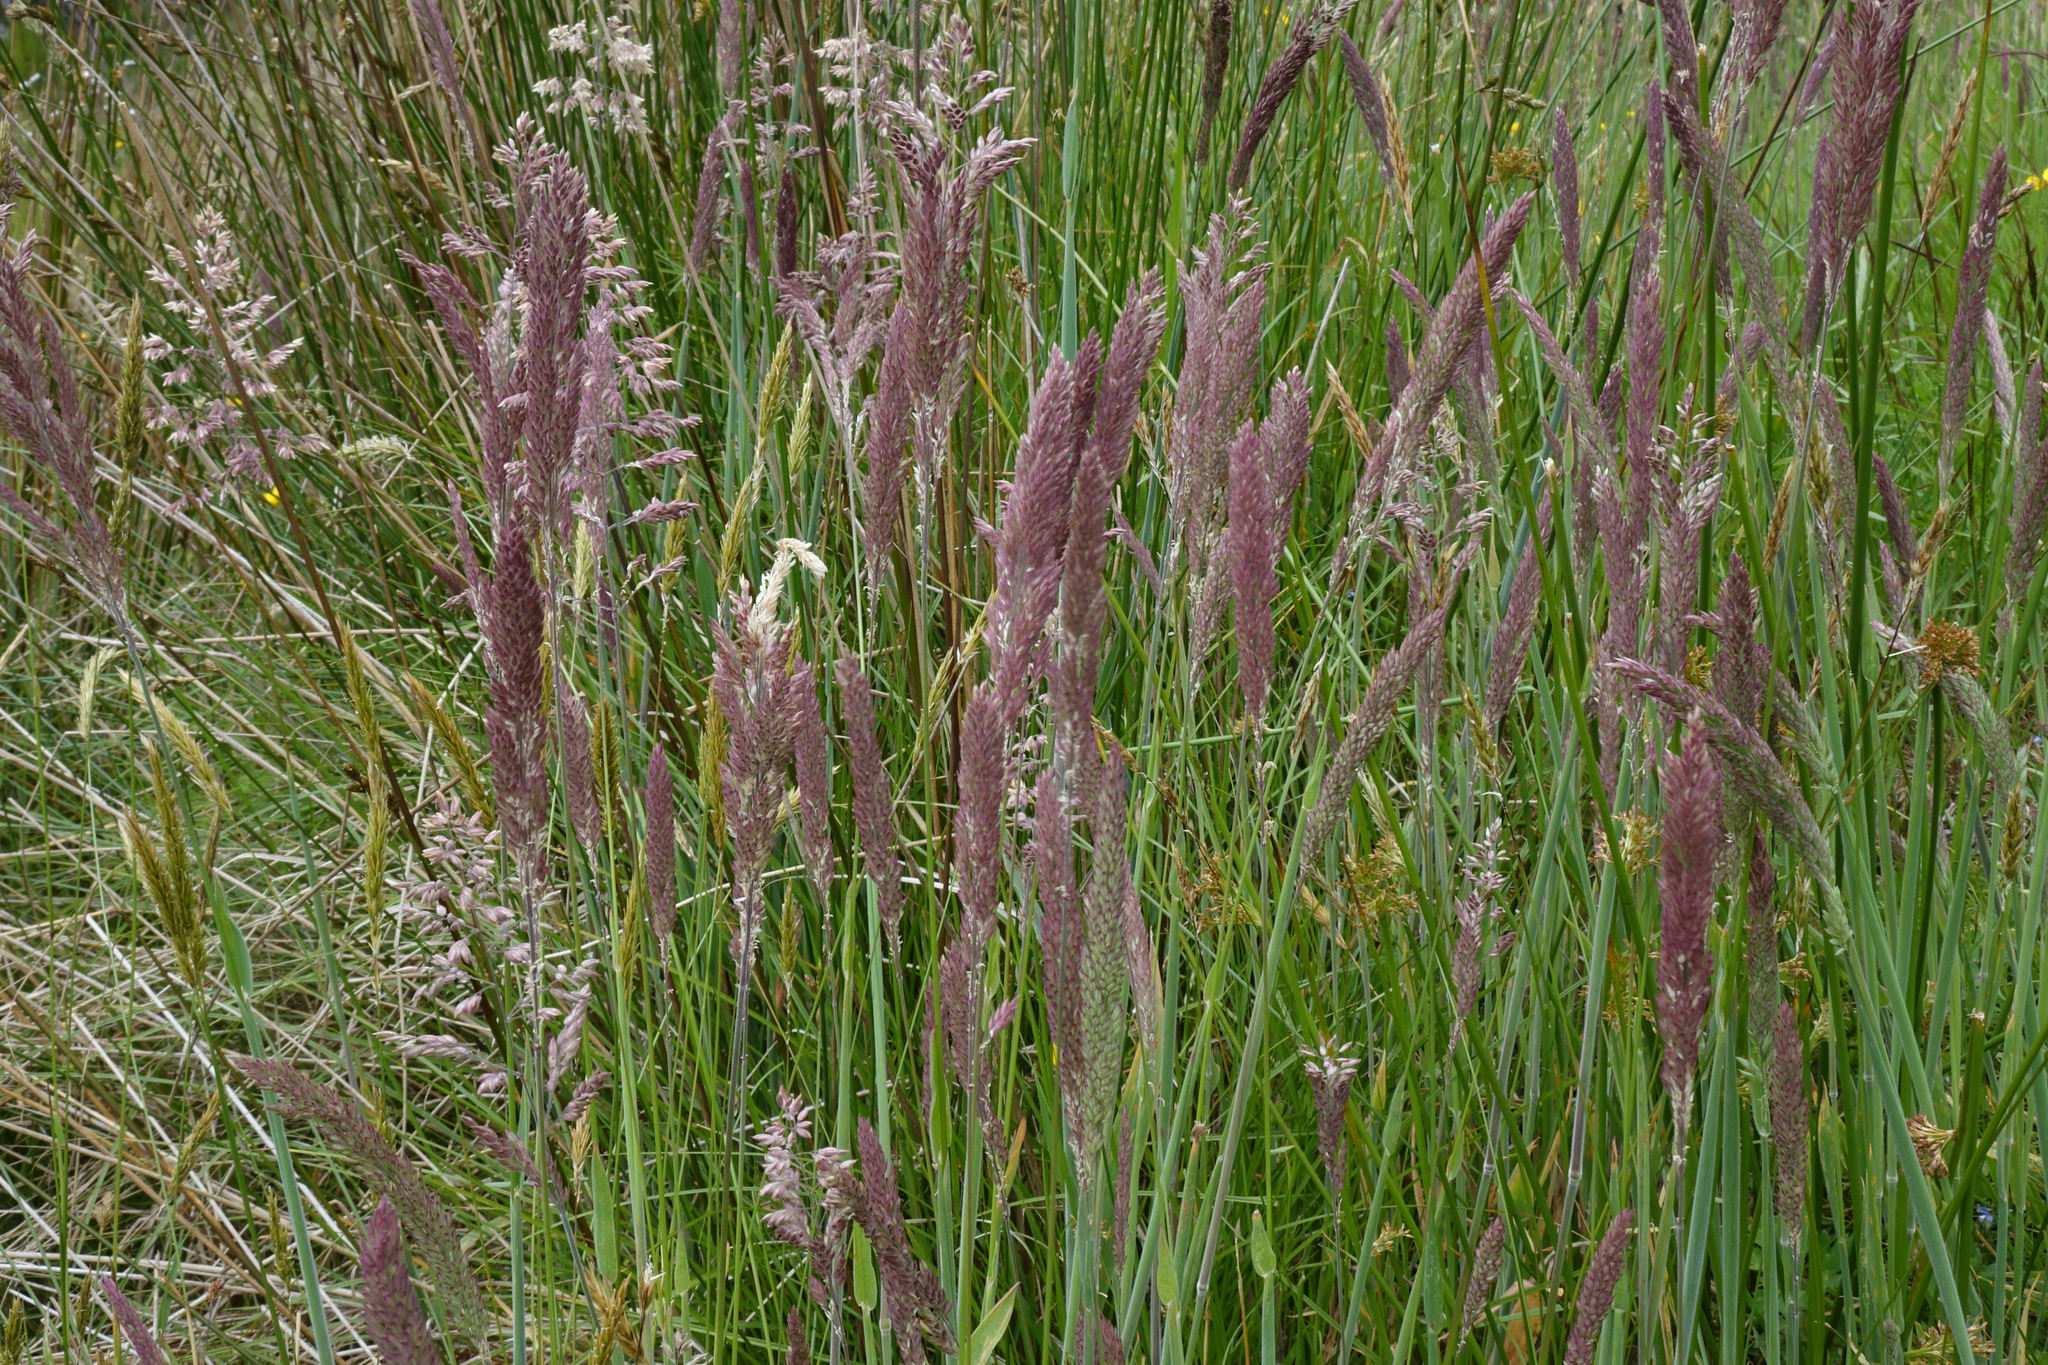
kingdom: Plantae
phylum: Tracheophyta
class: Liliopsida
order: Poales
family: Poaceae
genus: Holcus
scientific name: Holcus lanatus
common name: Yorkshire-fog
